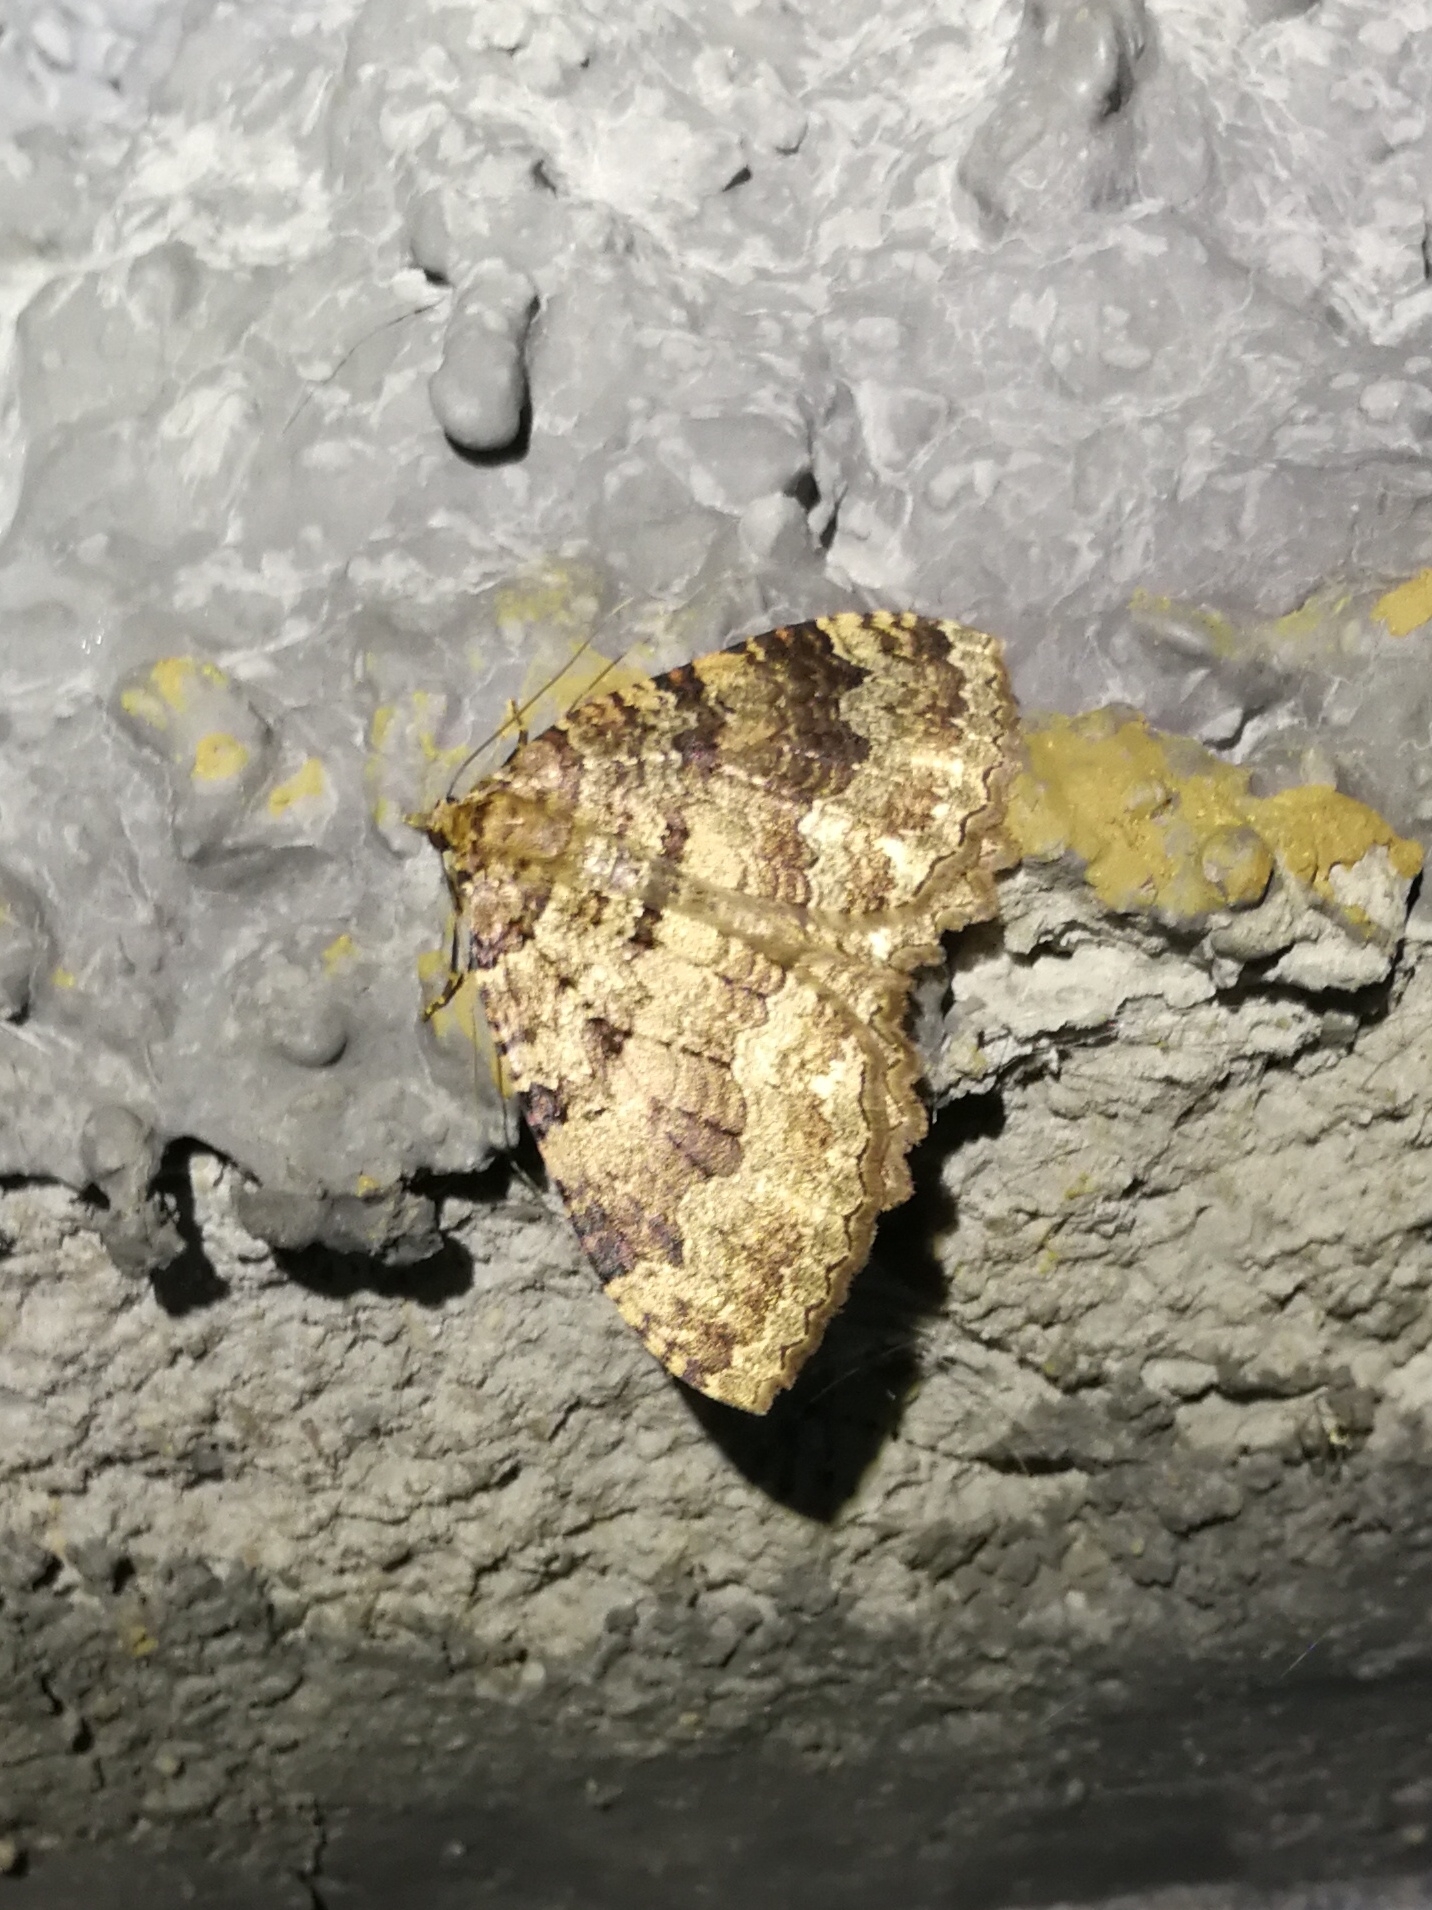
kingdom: Animalia
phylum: Arthropoda
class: Insecta
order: Lepidoptera
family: Geometridae
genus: Triphosa
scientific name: Triphosa dubitata
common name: Tissue
